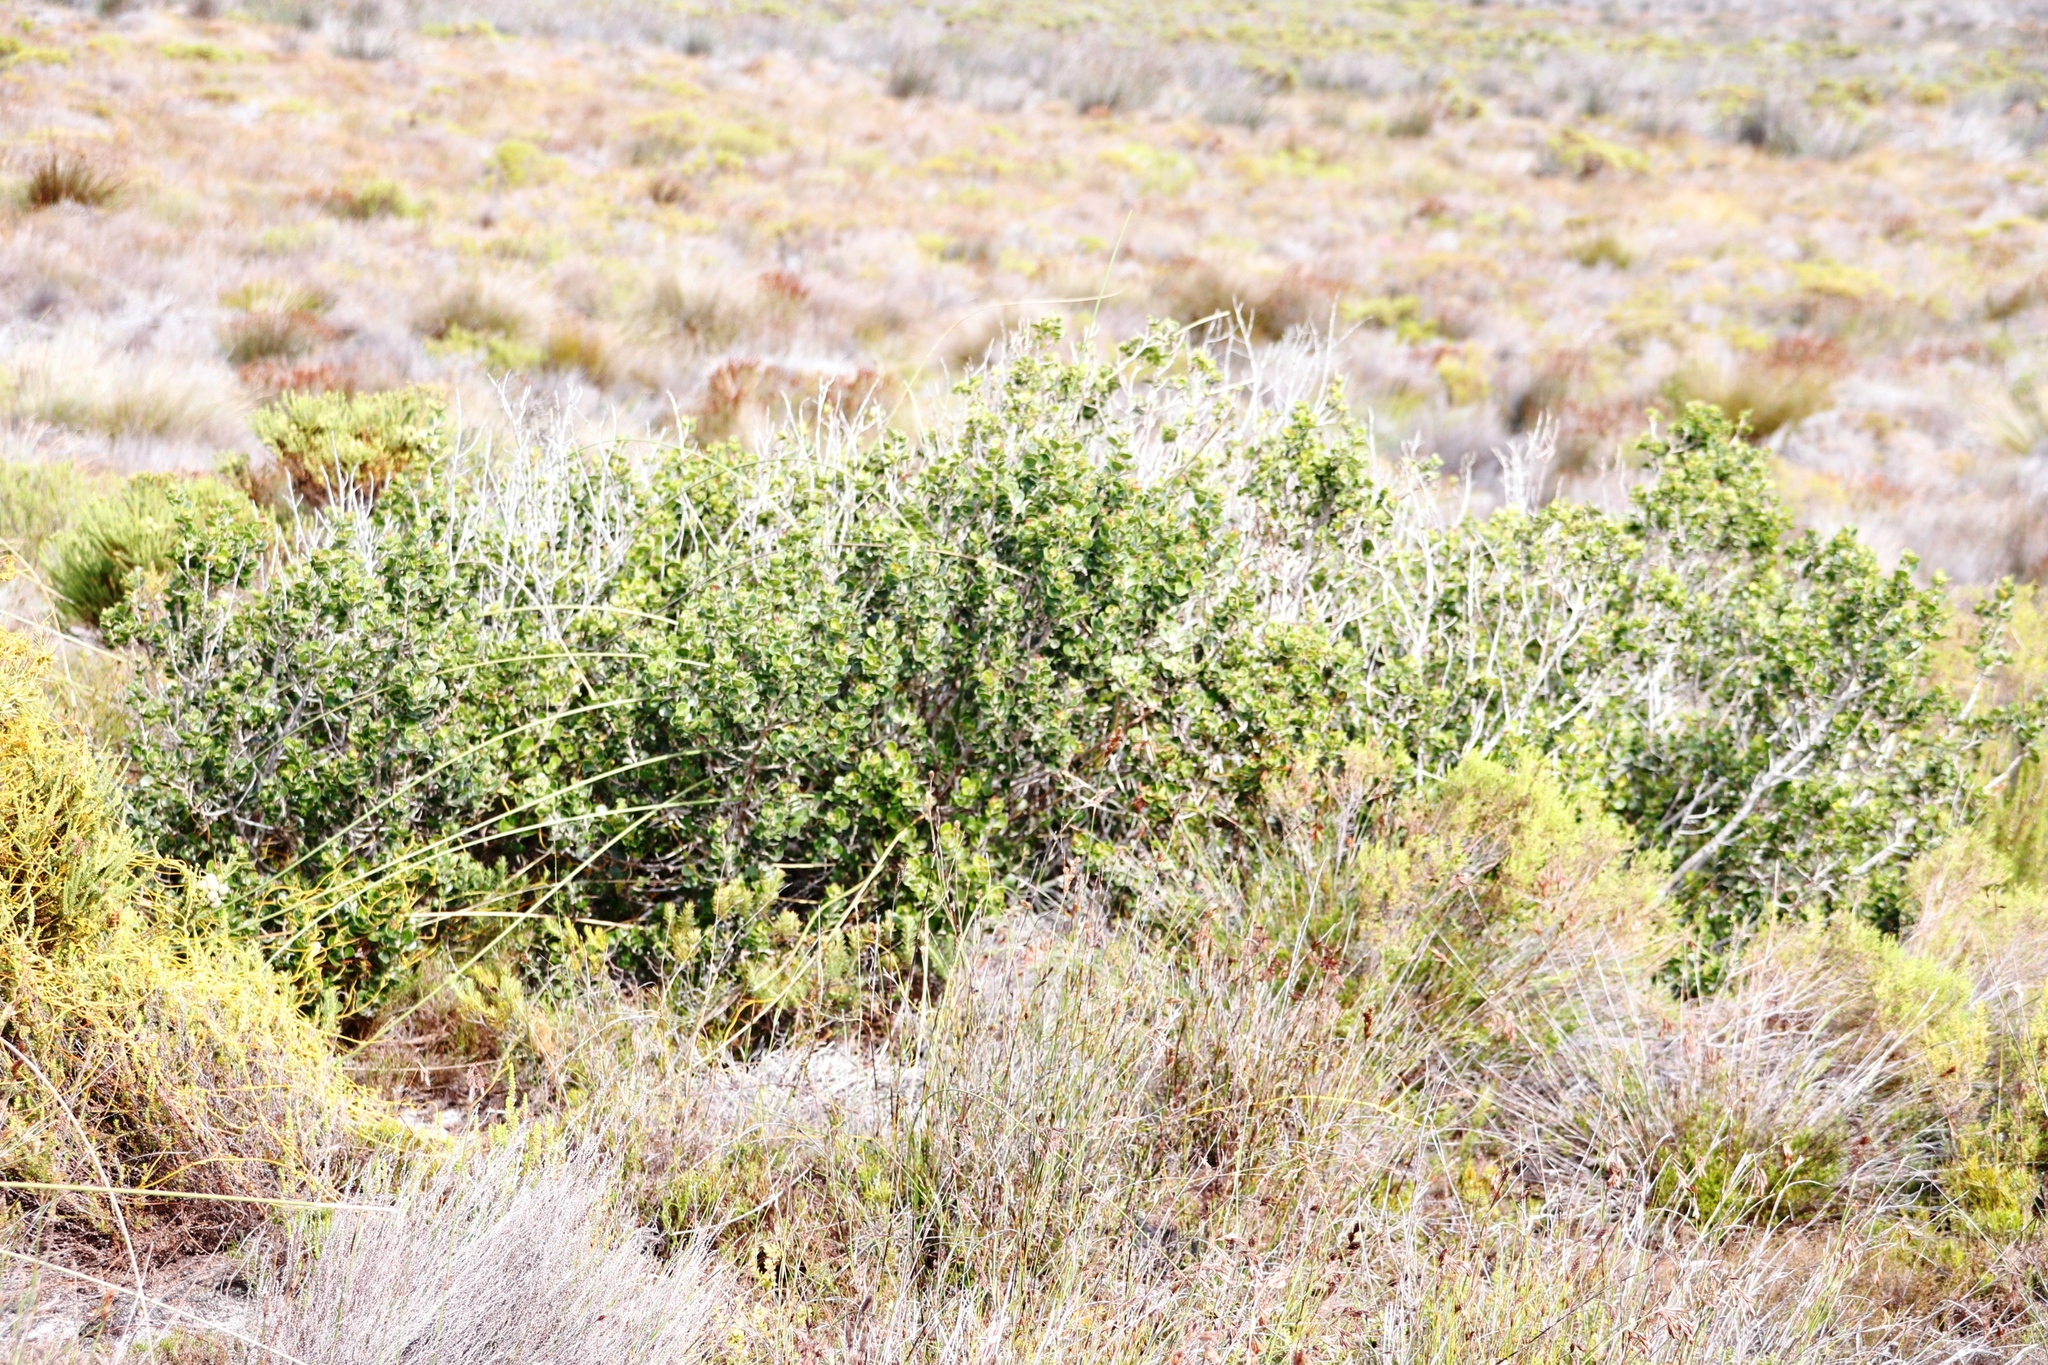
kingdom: Plantae
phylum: Tracheophyta
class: Magnoliopsida
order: Sapindales
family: Anacardiaceae
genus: Searsia
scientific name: Searsia glauca
